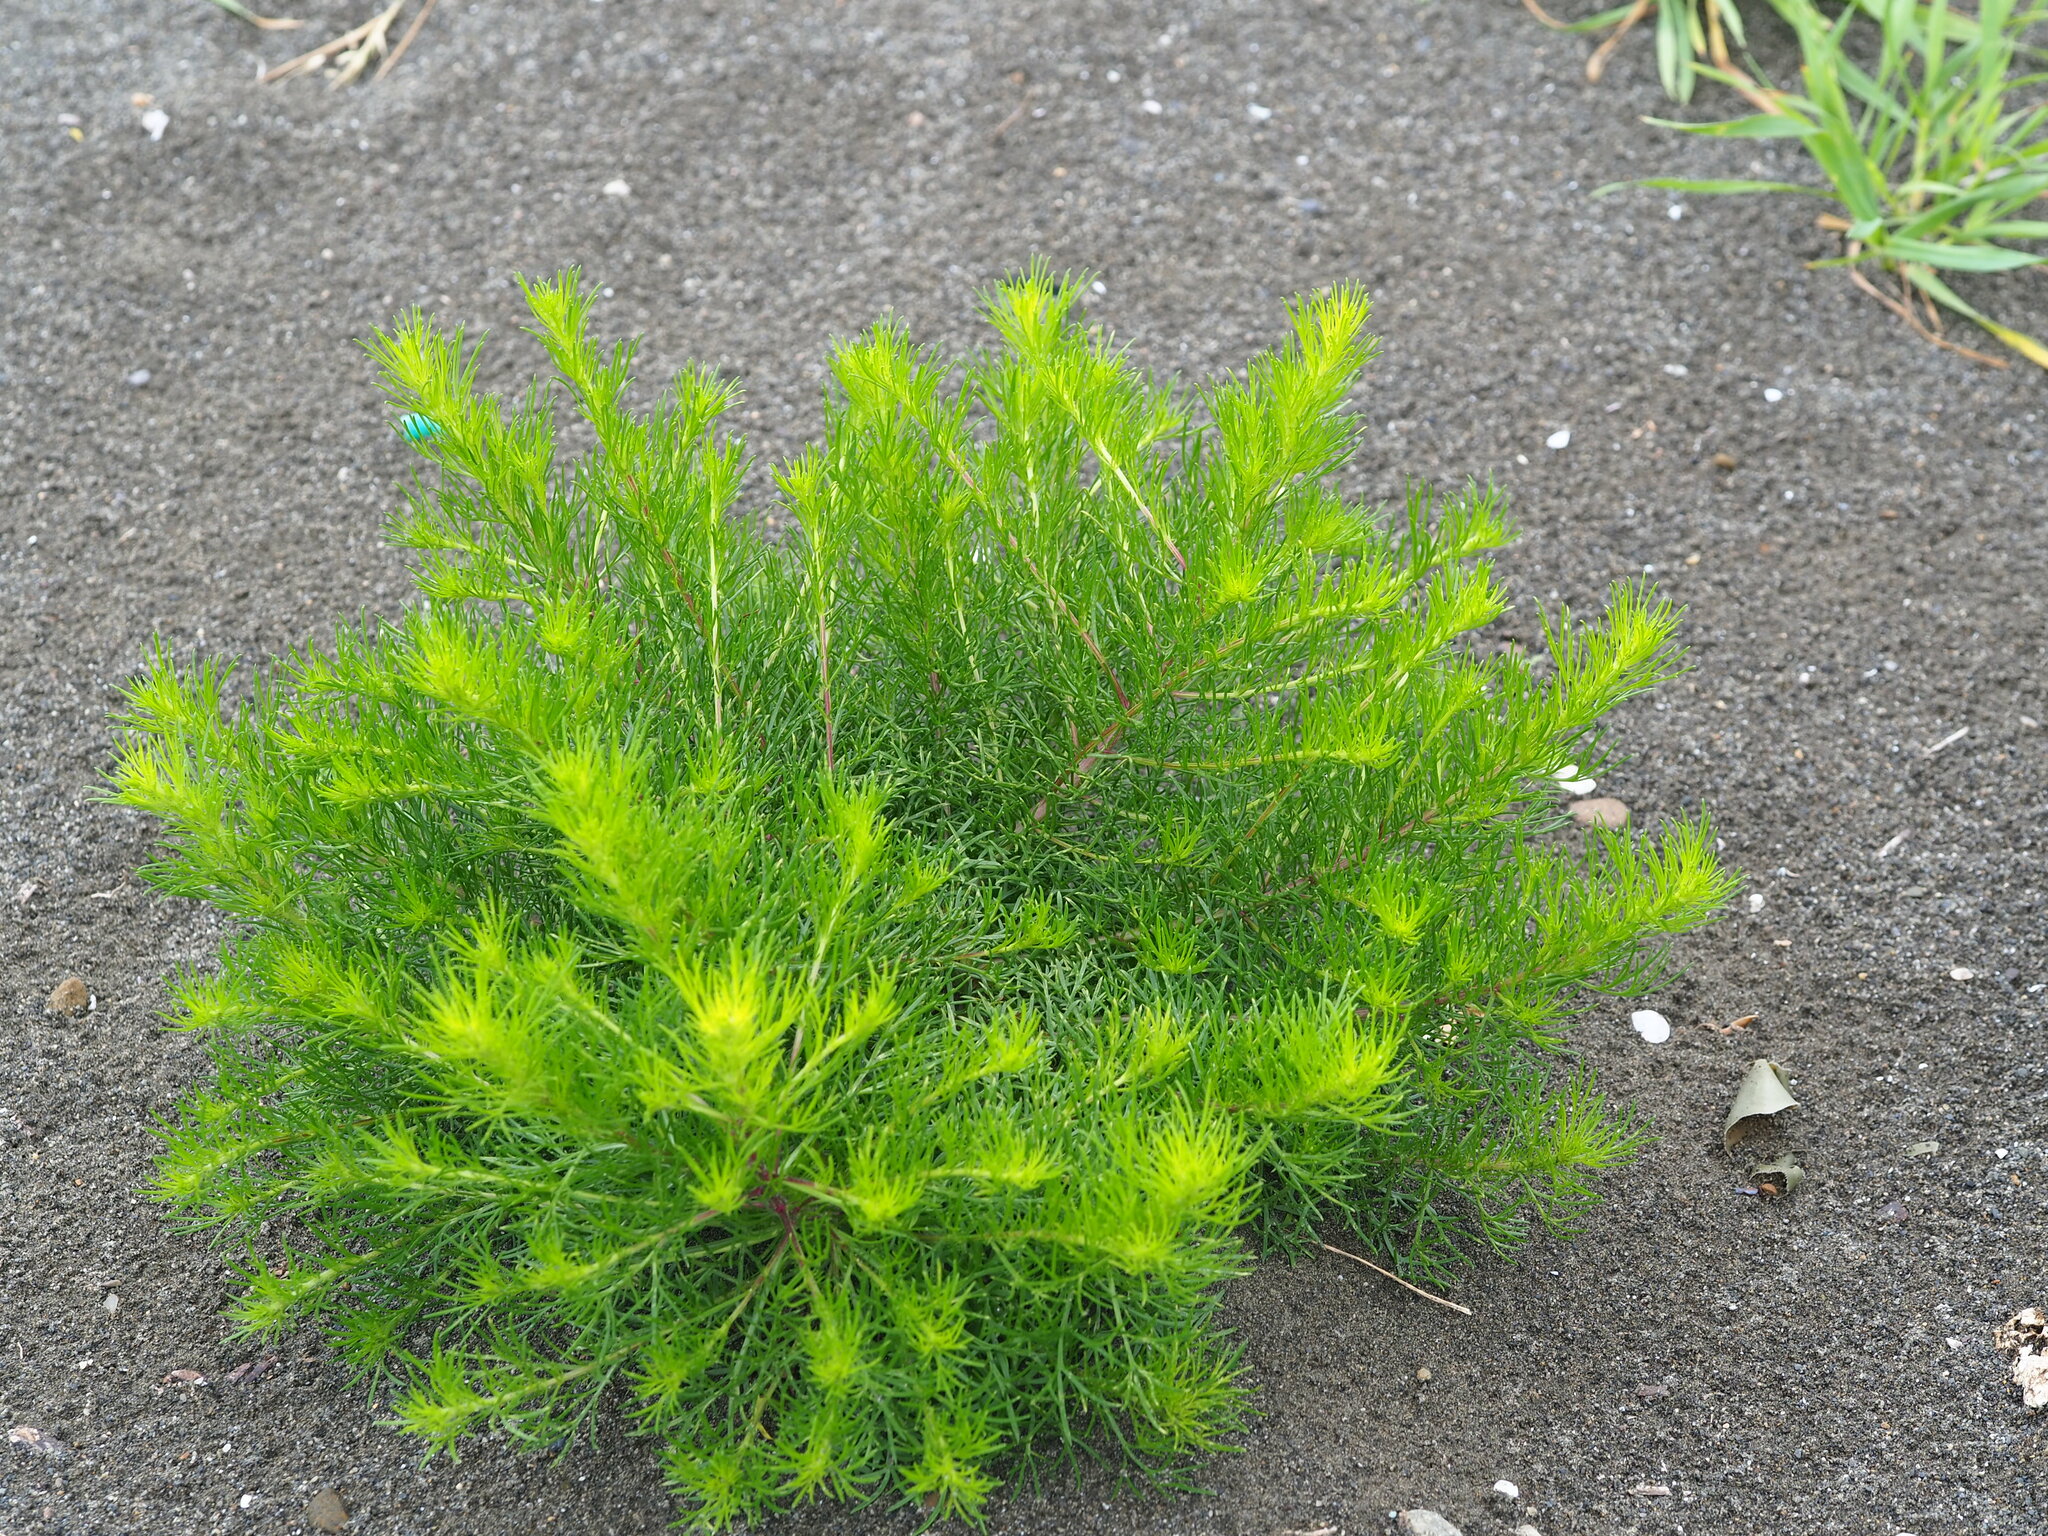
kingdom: Plantae
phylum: Tracheophyta
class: Magnoliopsida
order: Asterales
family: Asteraceae
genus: Artemisia
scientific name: Artemisia capillaris
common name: Yin-chen wormwood
